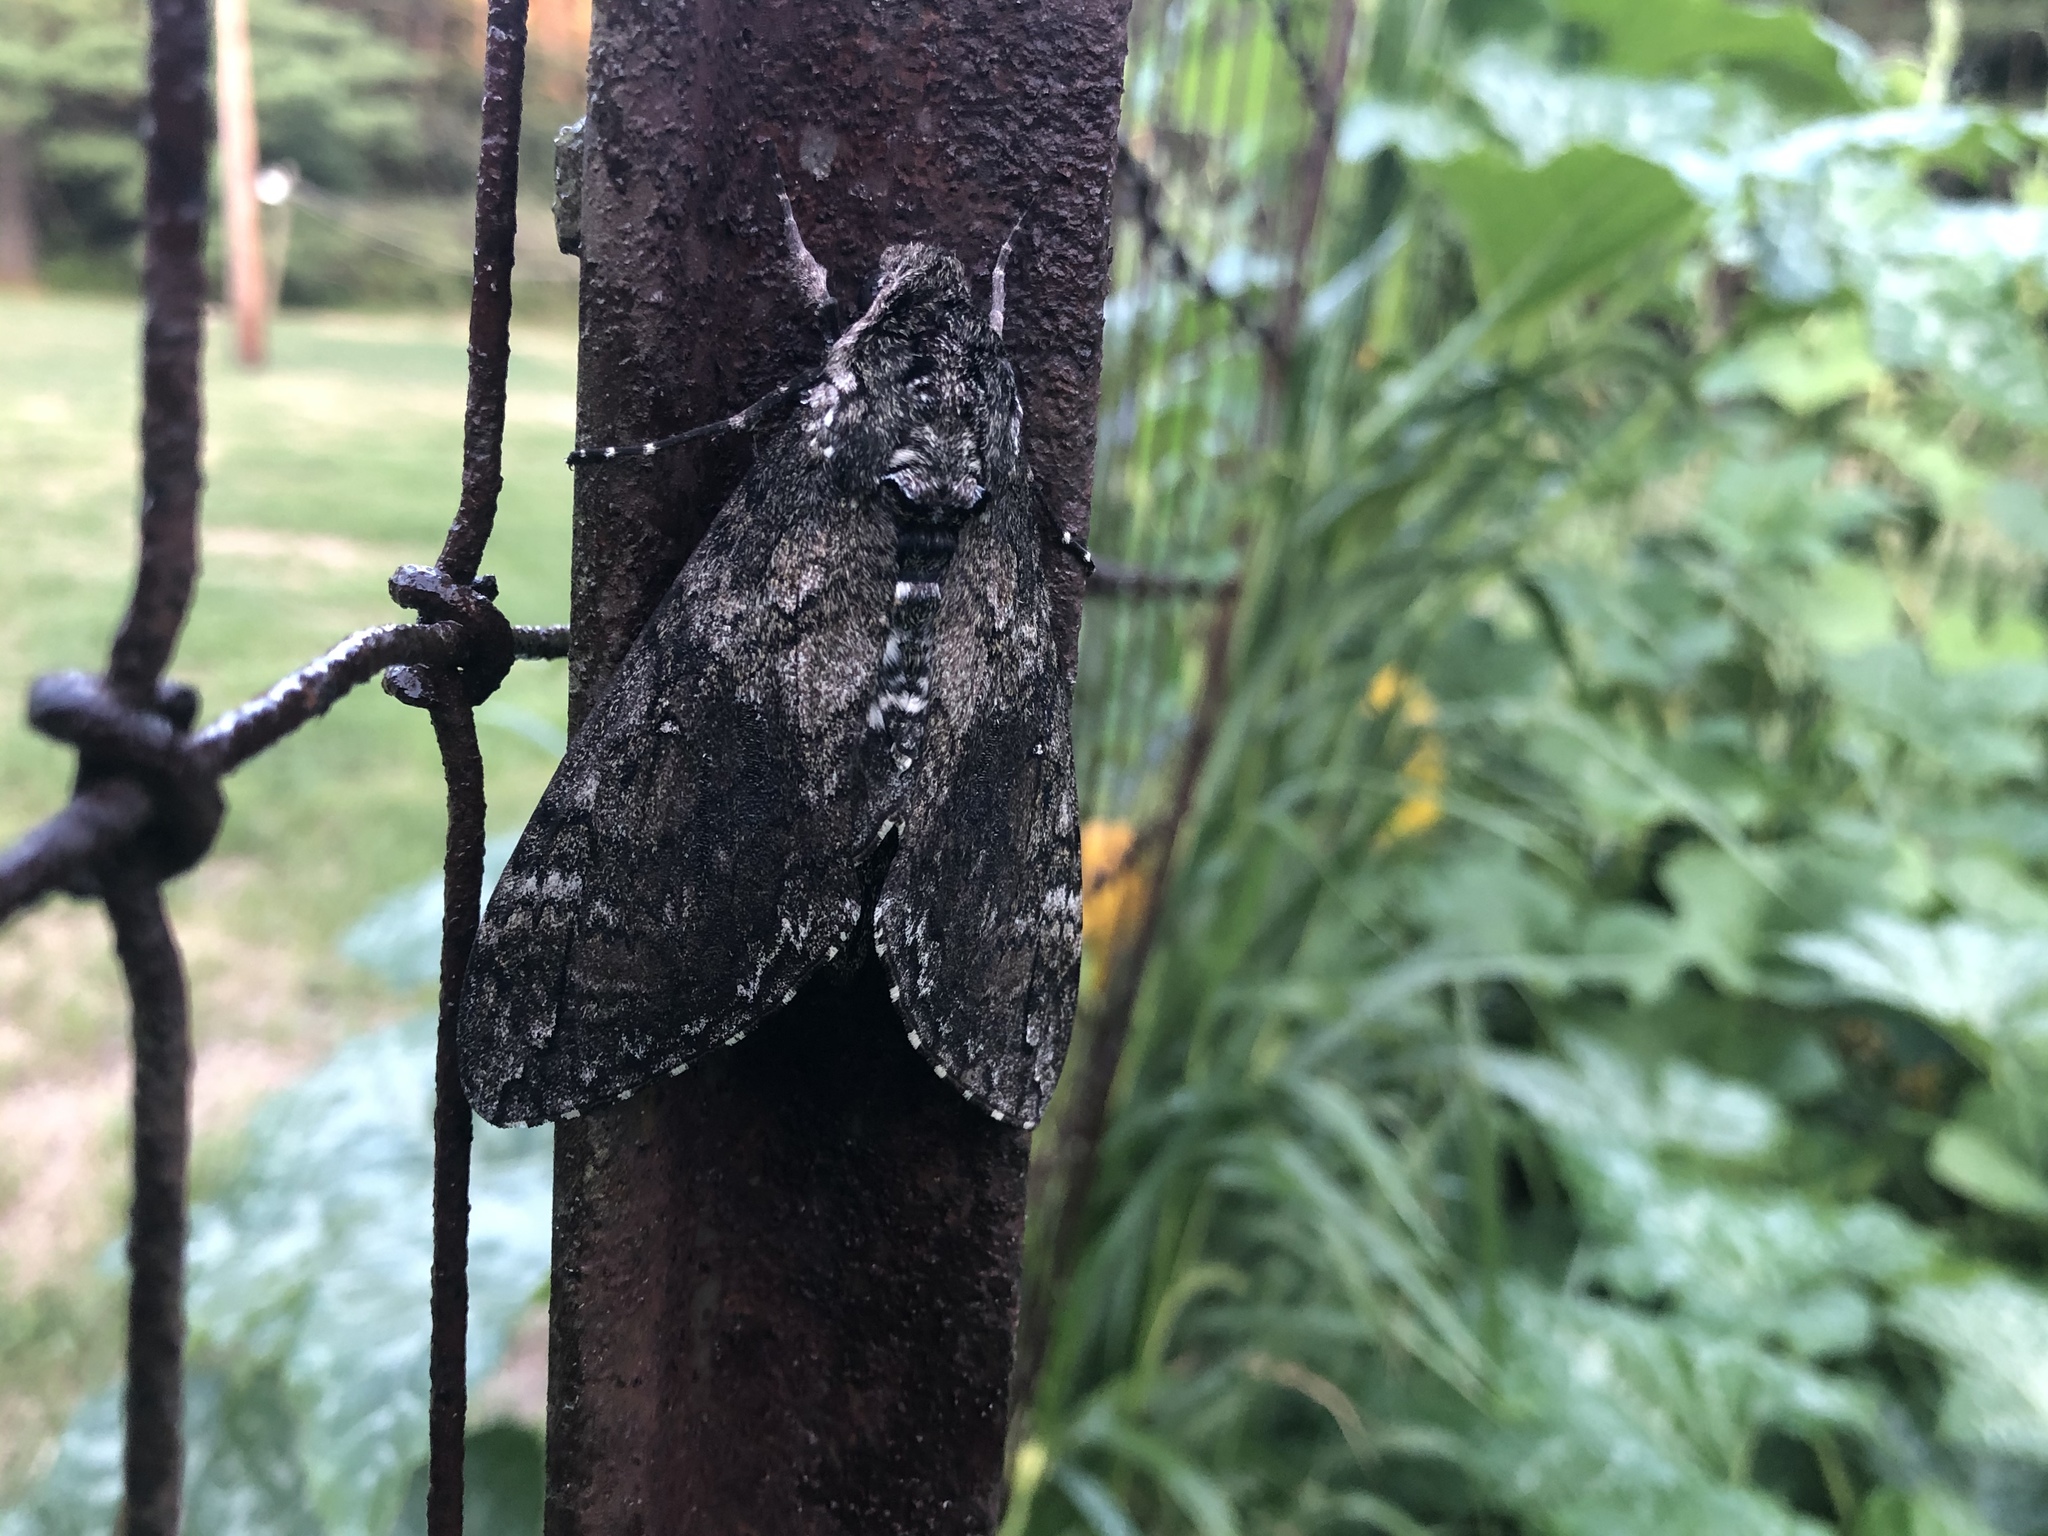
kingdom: Animalia
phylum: Arthropoda
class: Insecta
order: Lepidoptera
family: Sphingidae
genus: Manduca
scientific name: Manduca sexta
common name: Carolina sphinx
